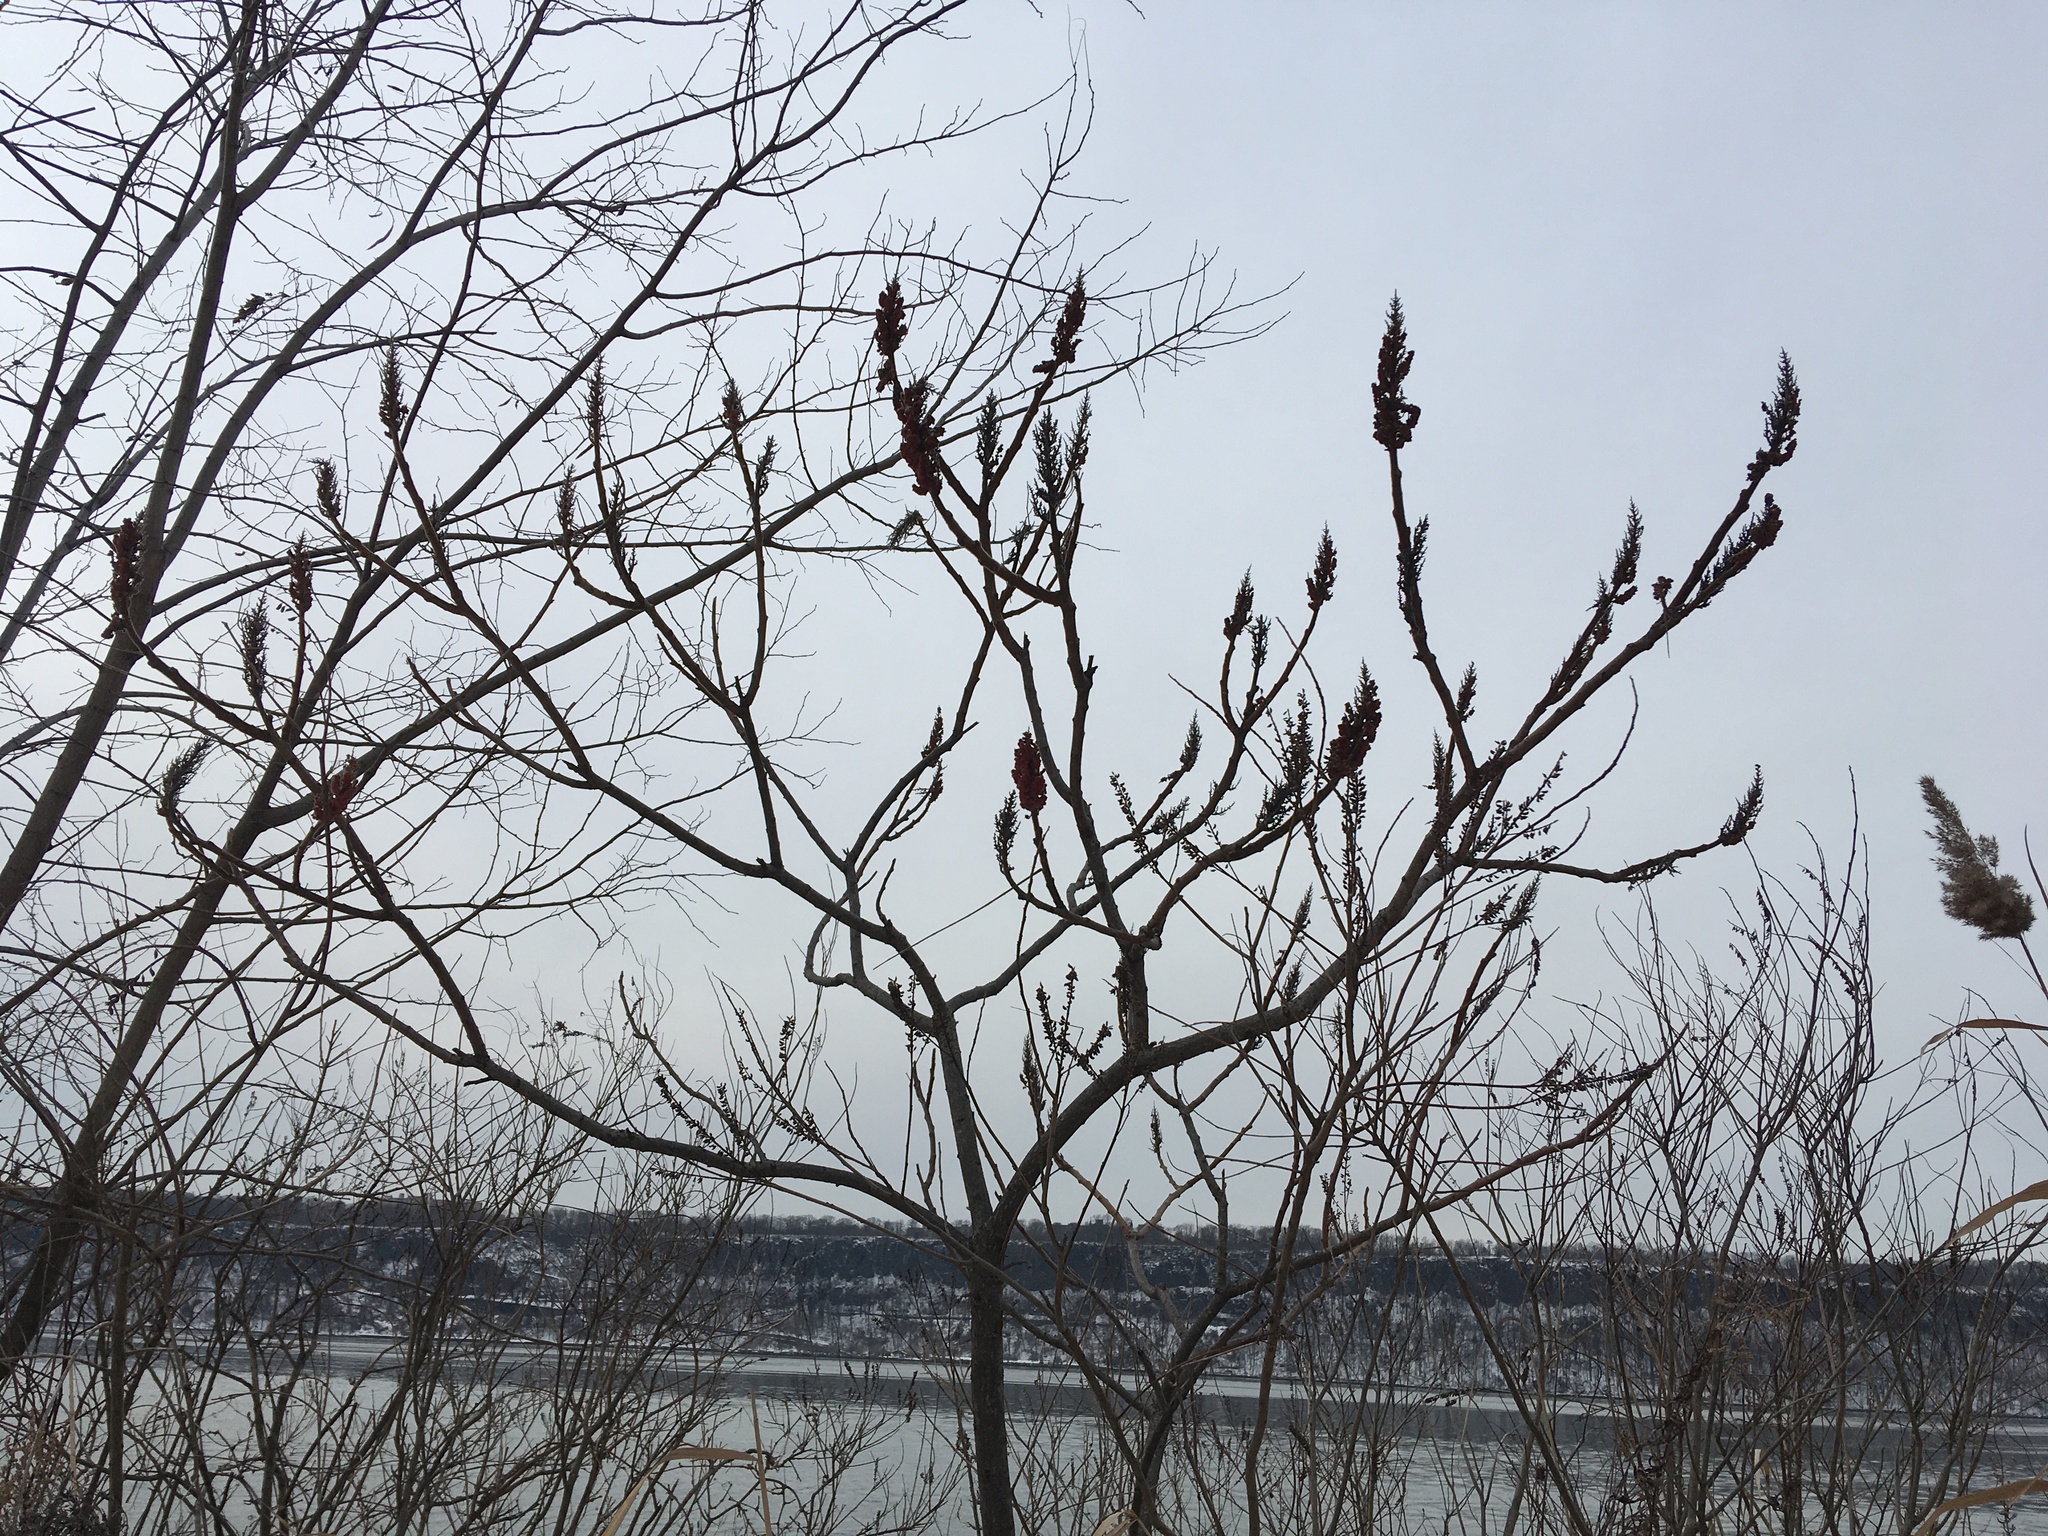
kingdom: Plantae
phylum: Tracheophyta
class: Magnoliopsida
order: Sapindales
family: Anacardiaceae
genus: Rhus
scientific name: Rhus typhina
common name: Staghorn sumac
